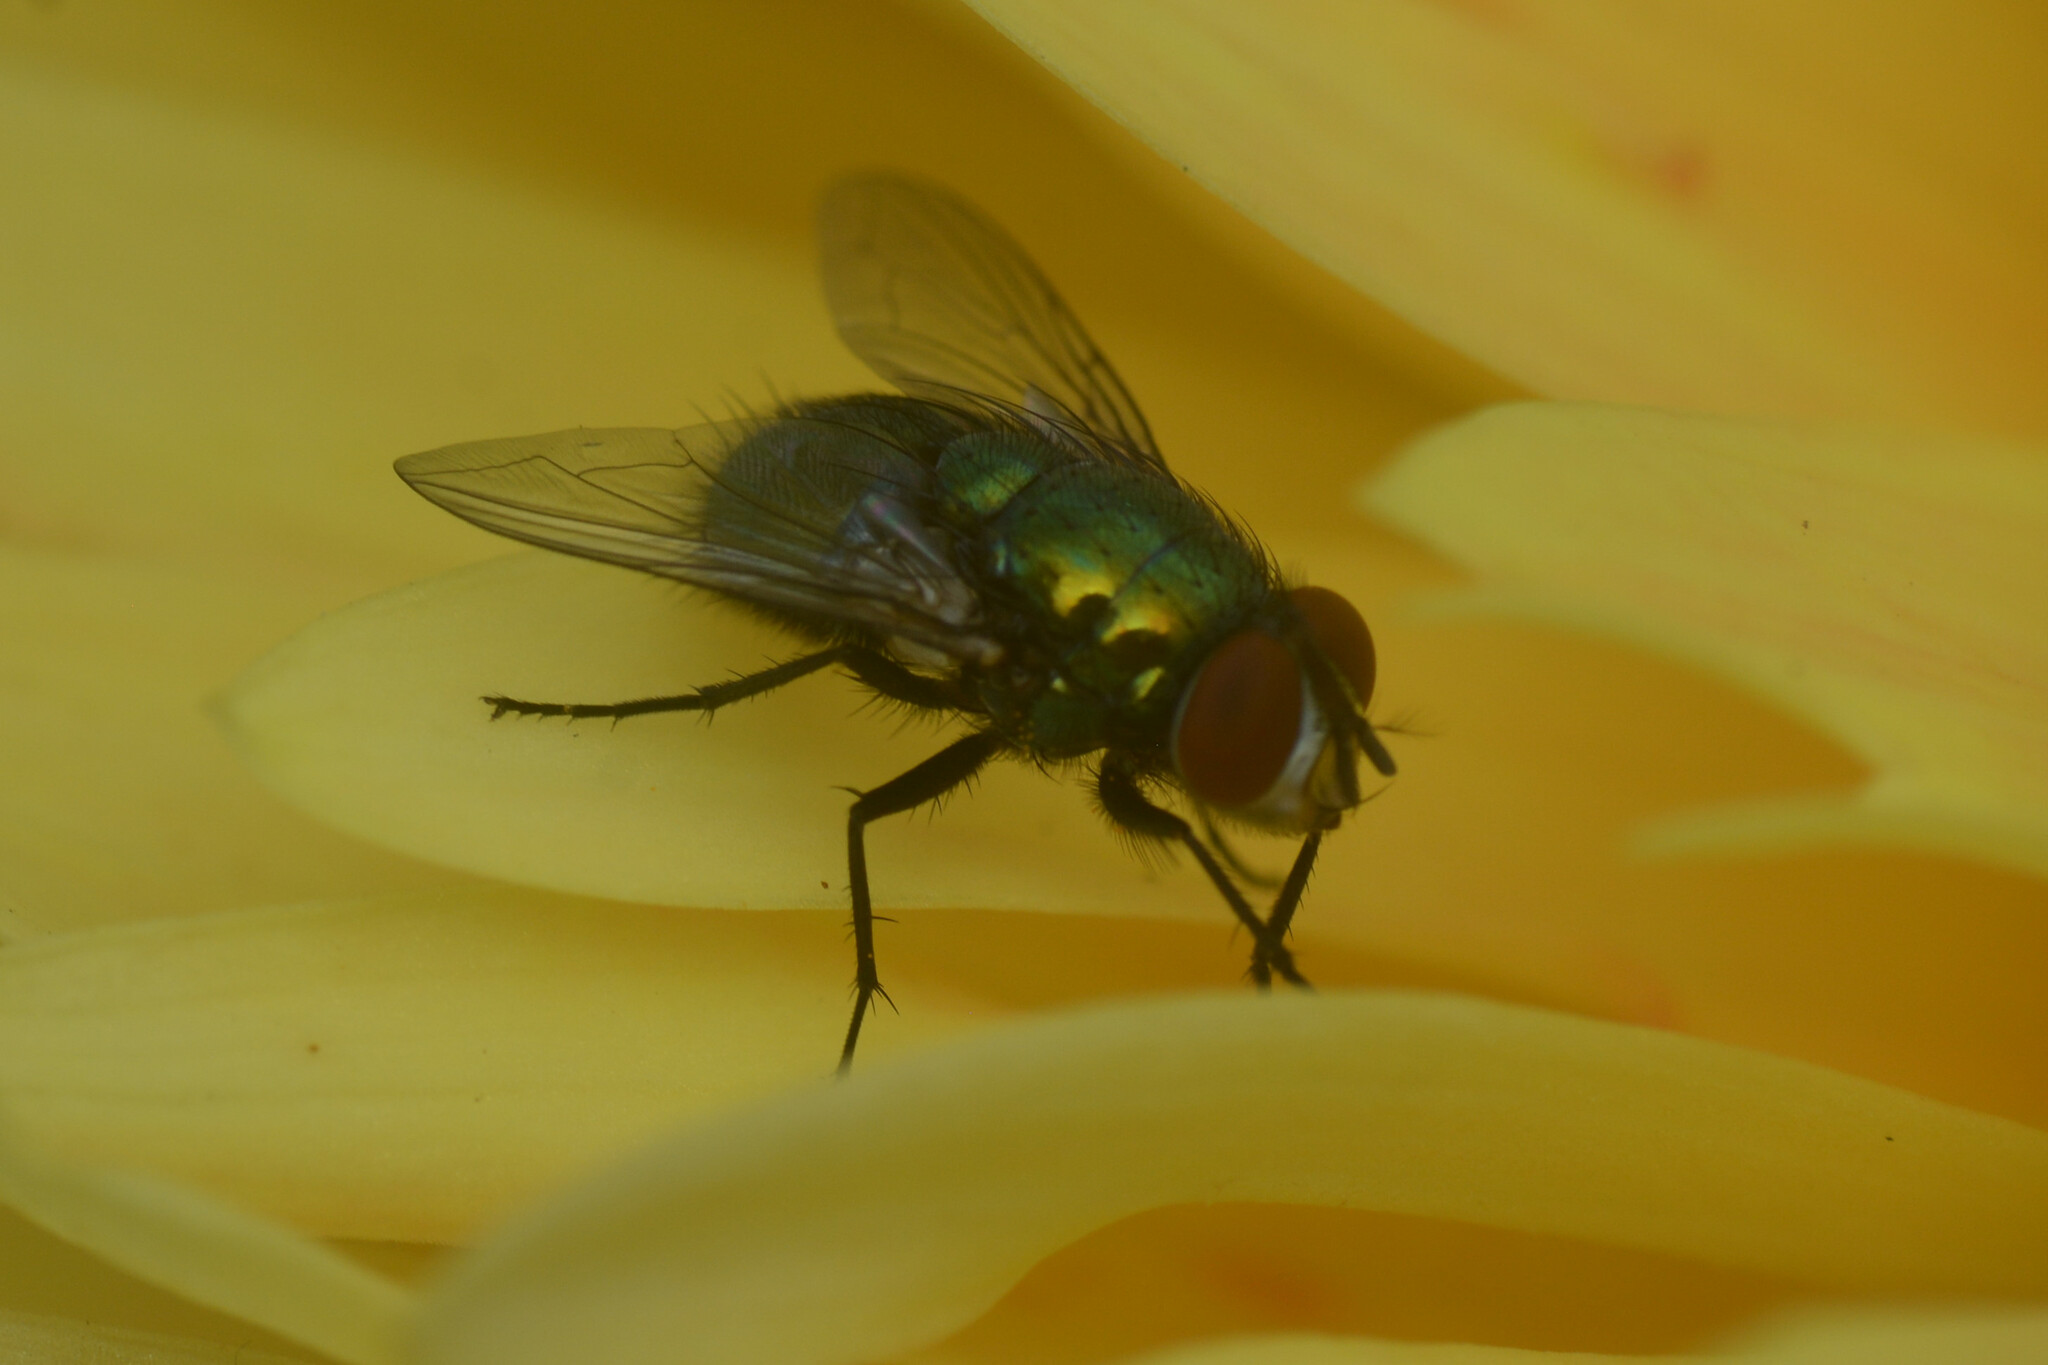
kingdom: Animalia
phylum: Arthropoda
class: Insecta
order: Diptera
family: Calliphoridae
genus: Lucilia
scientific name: Lucilia sericata
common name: Blow fly
